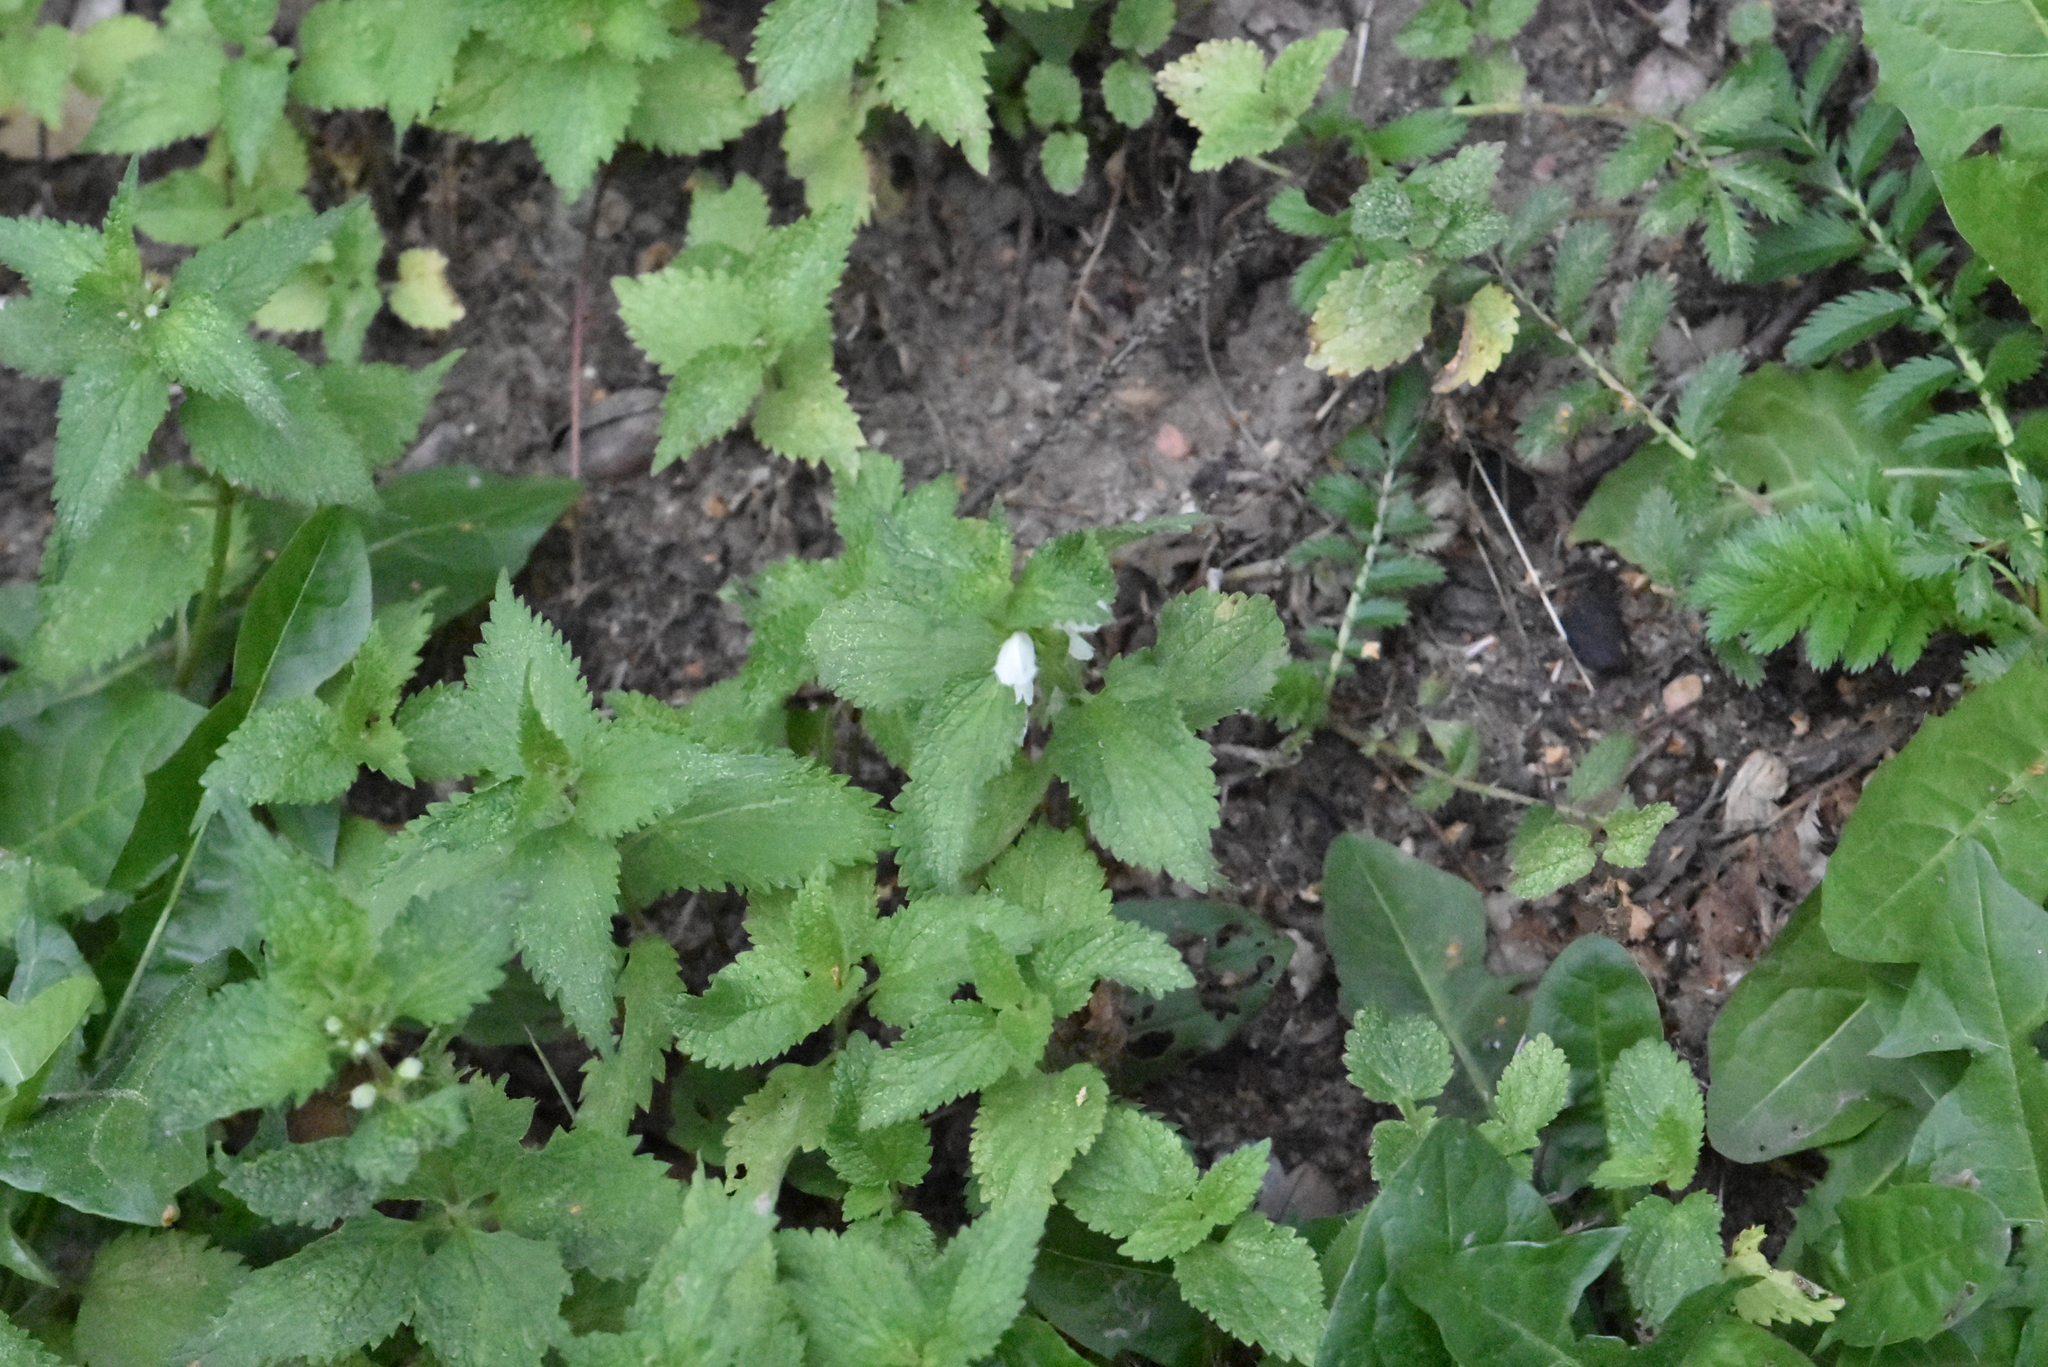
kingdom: Plantae
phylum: Tracheophyta
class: Magnoliopsida
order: Lamiales
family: Lamiaceae
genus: Lamium
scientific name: Lamium album
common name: White dead-nettle
